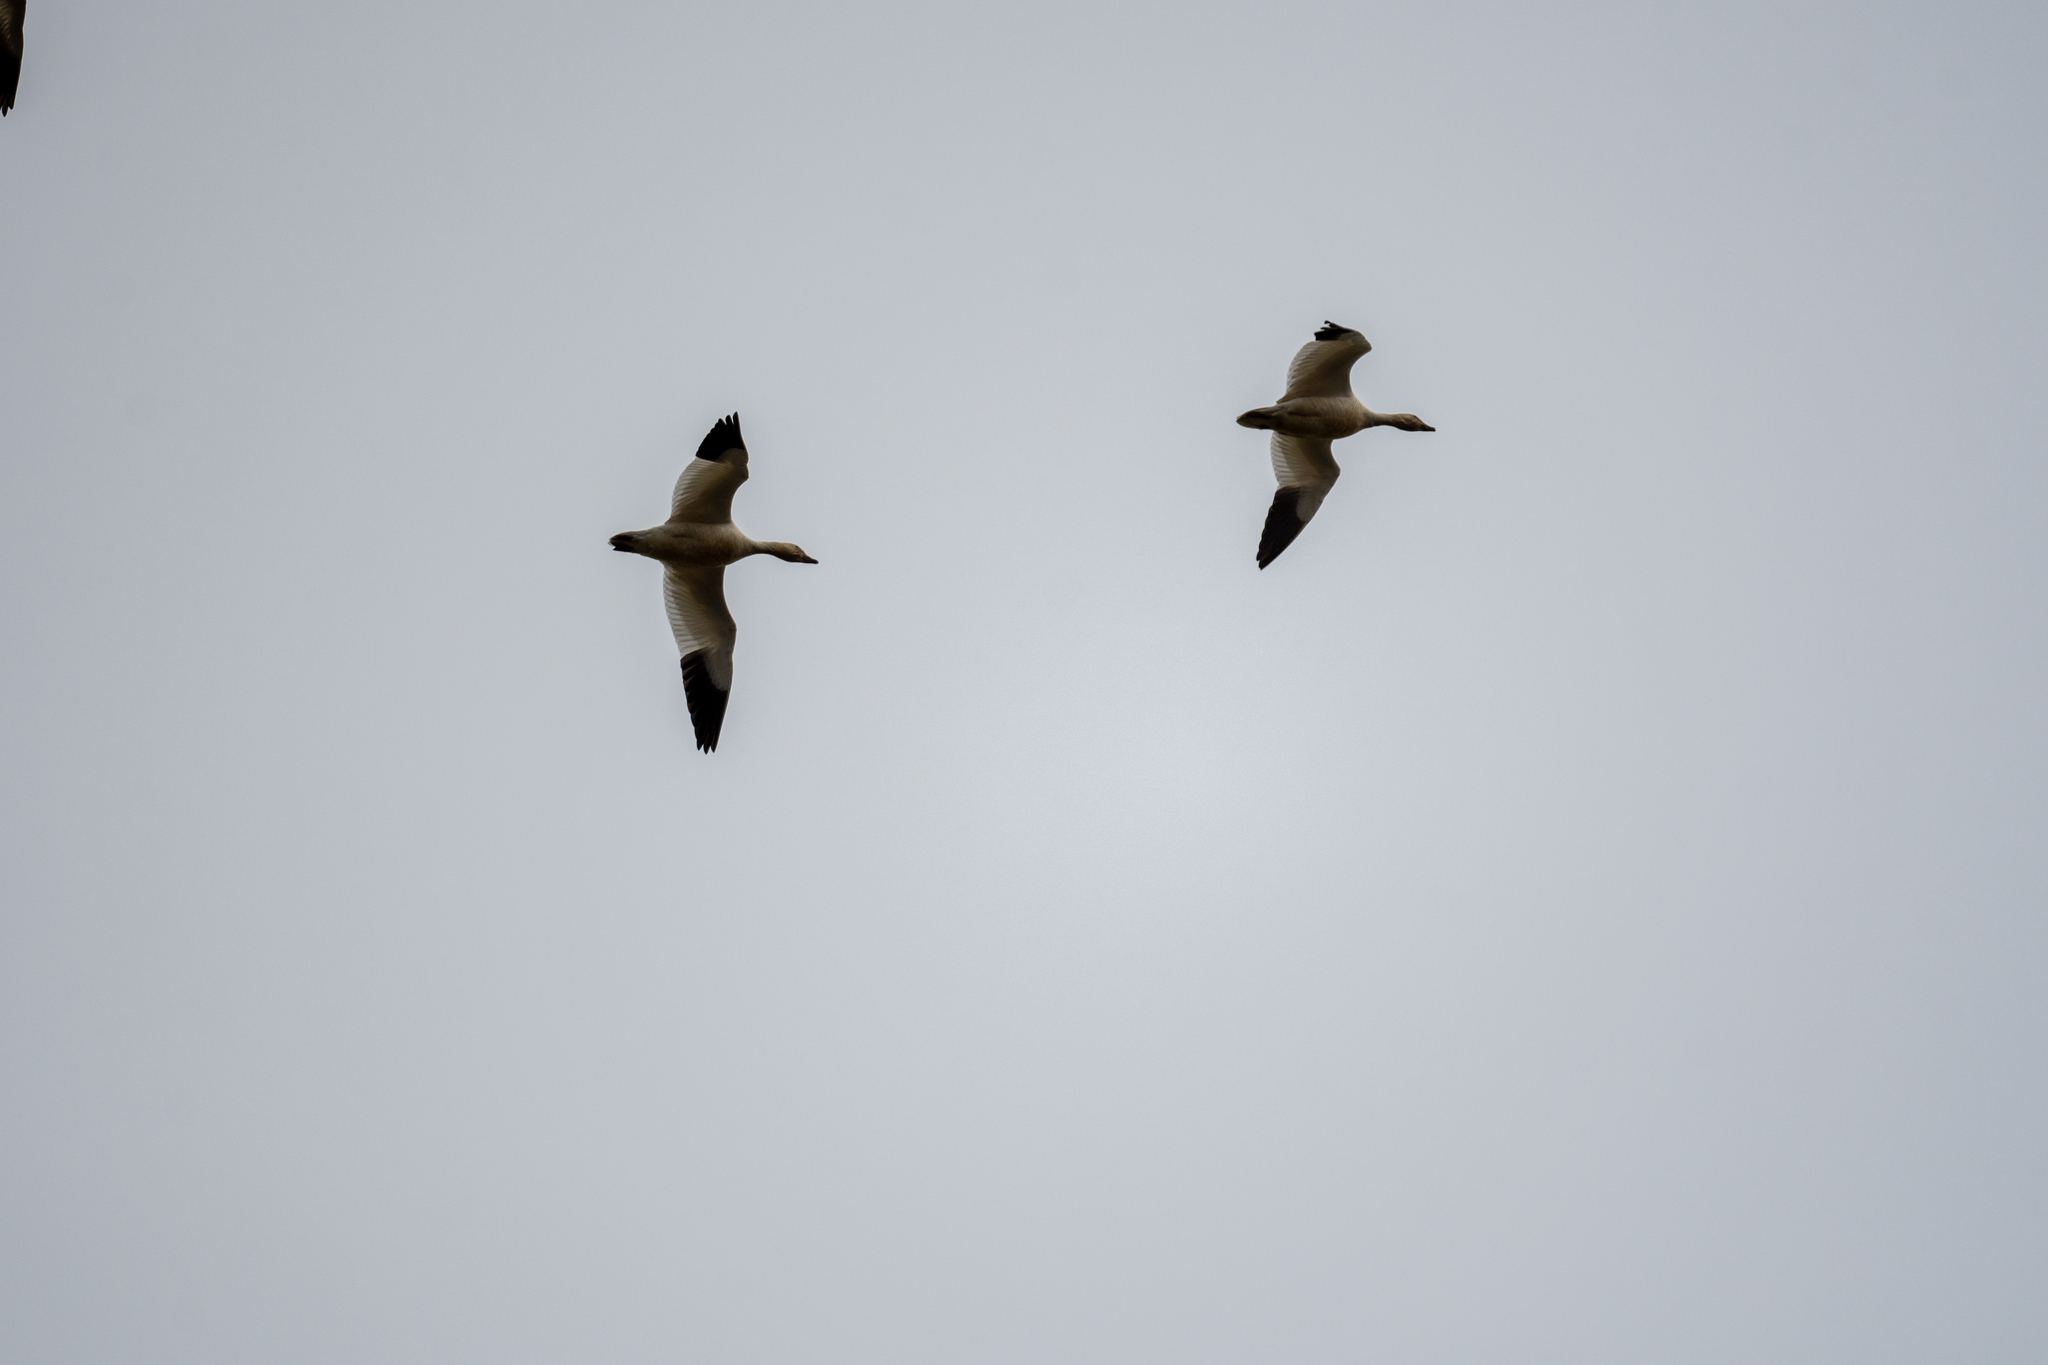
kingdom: Animalia
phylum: Chordata
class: Aves
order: Anseriformes
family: Anatidae
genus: Anser
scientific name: Anser caerulescens
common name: Snow goose
